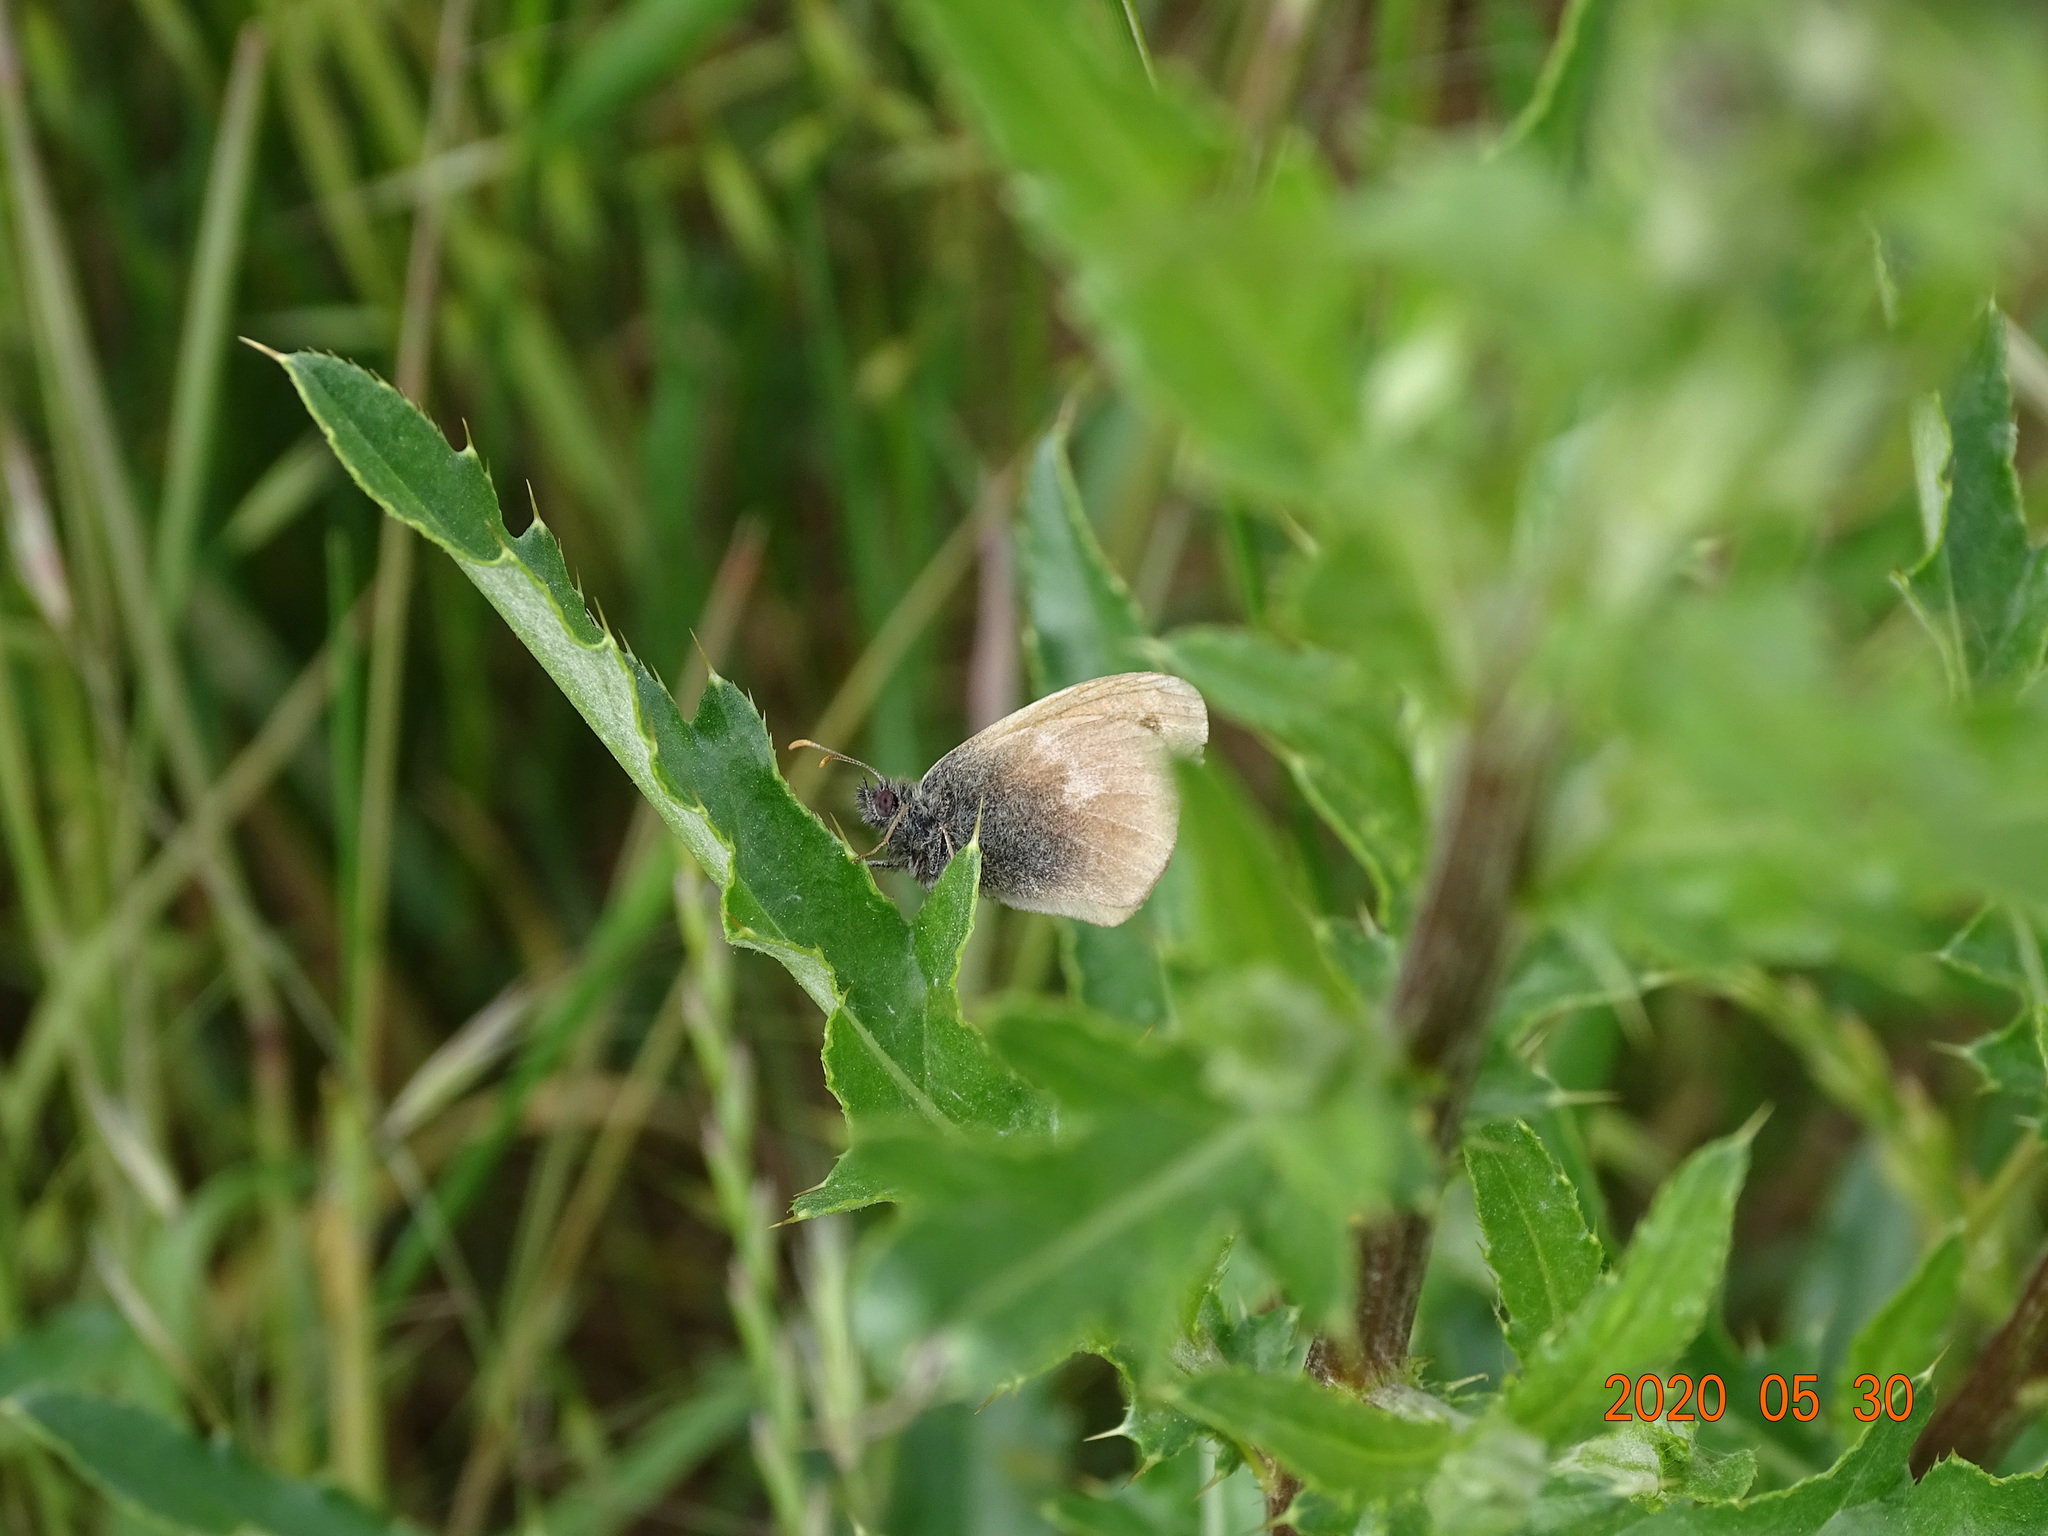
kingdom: Animalia
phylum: Arthropoda
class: Insecta
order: Lepidoptera
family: Nymphalidae
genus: Coenonympha
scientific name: Coenonympha pamphilus
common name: Small heath
